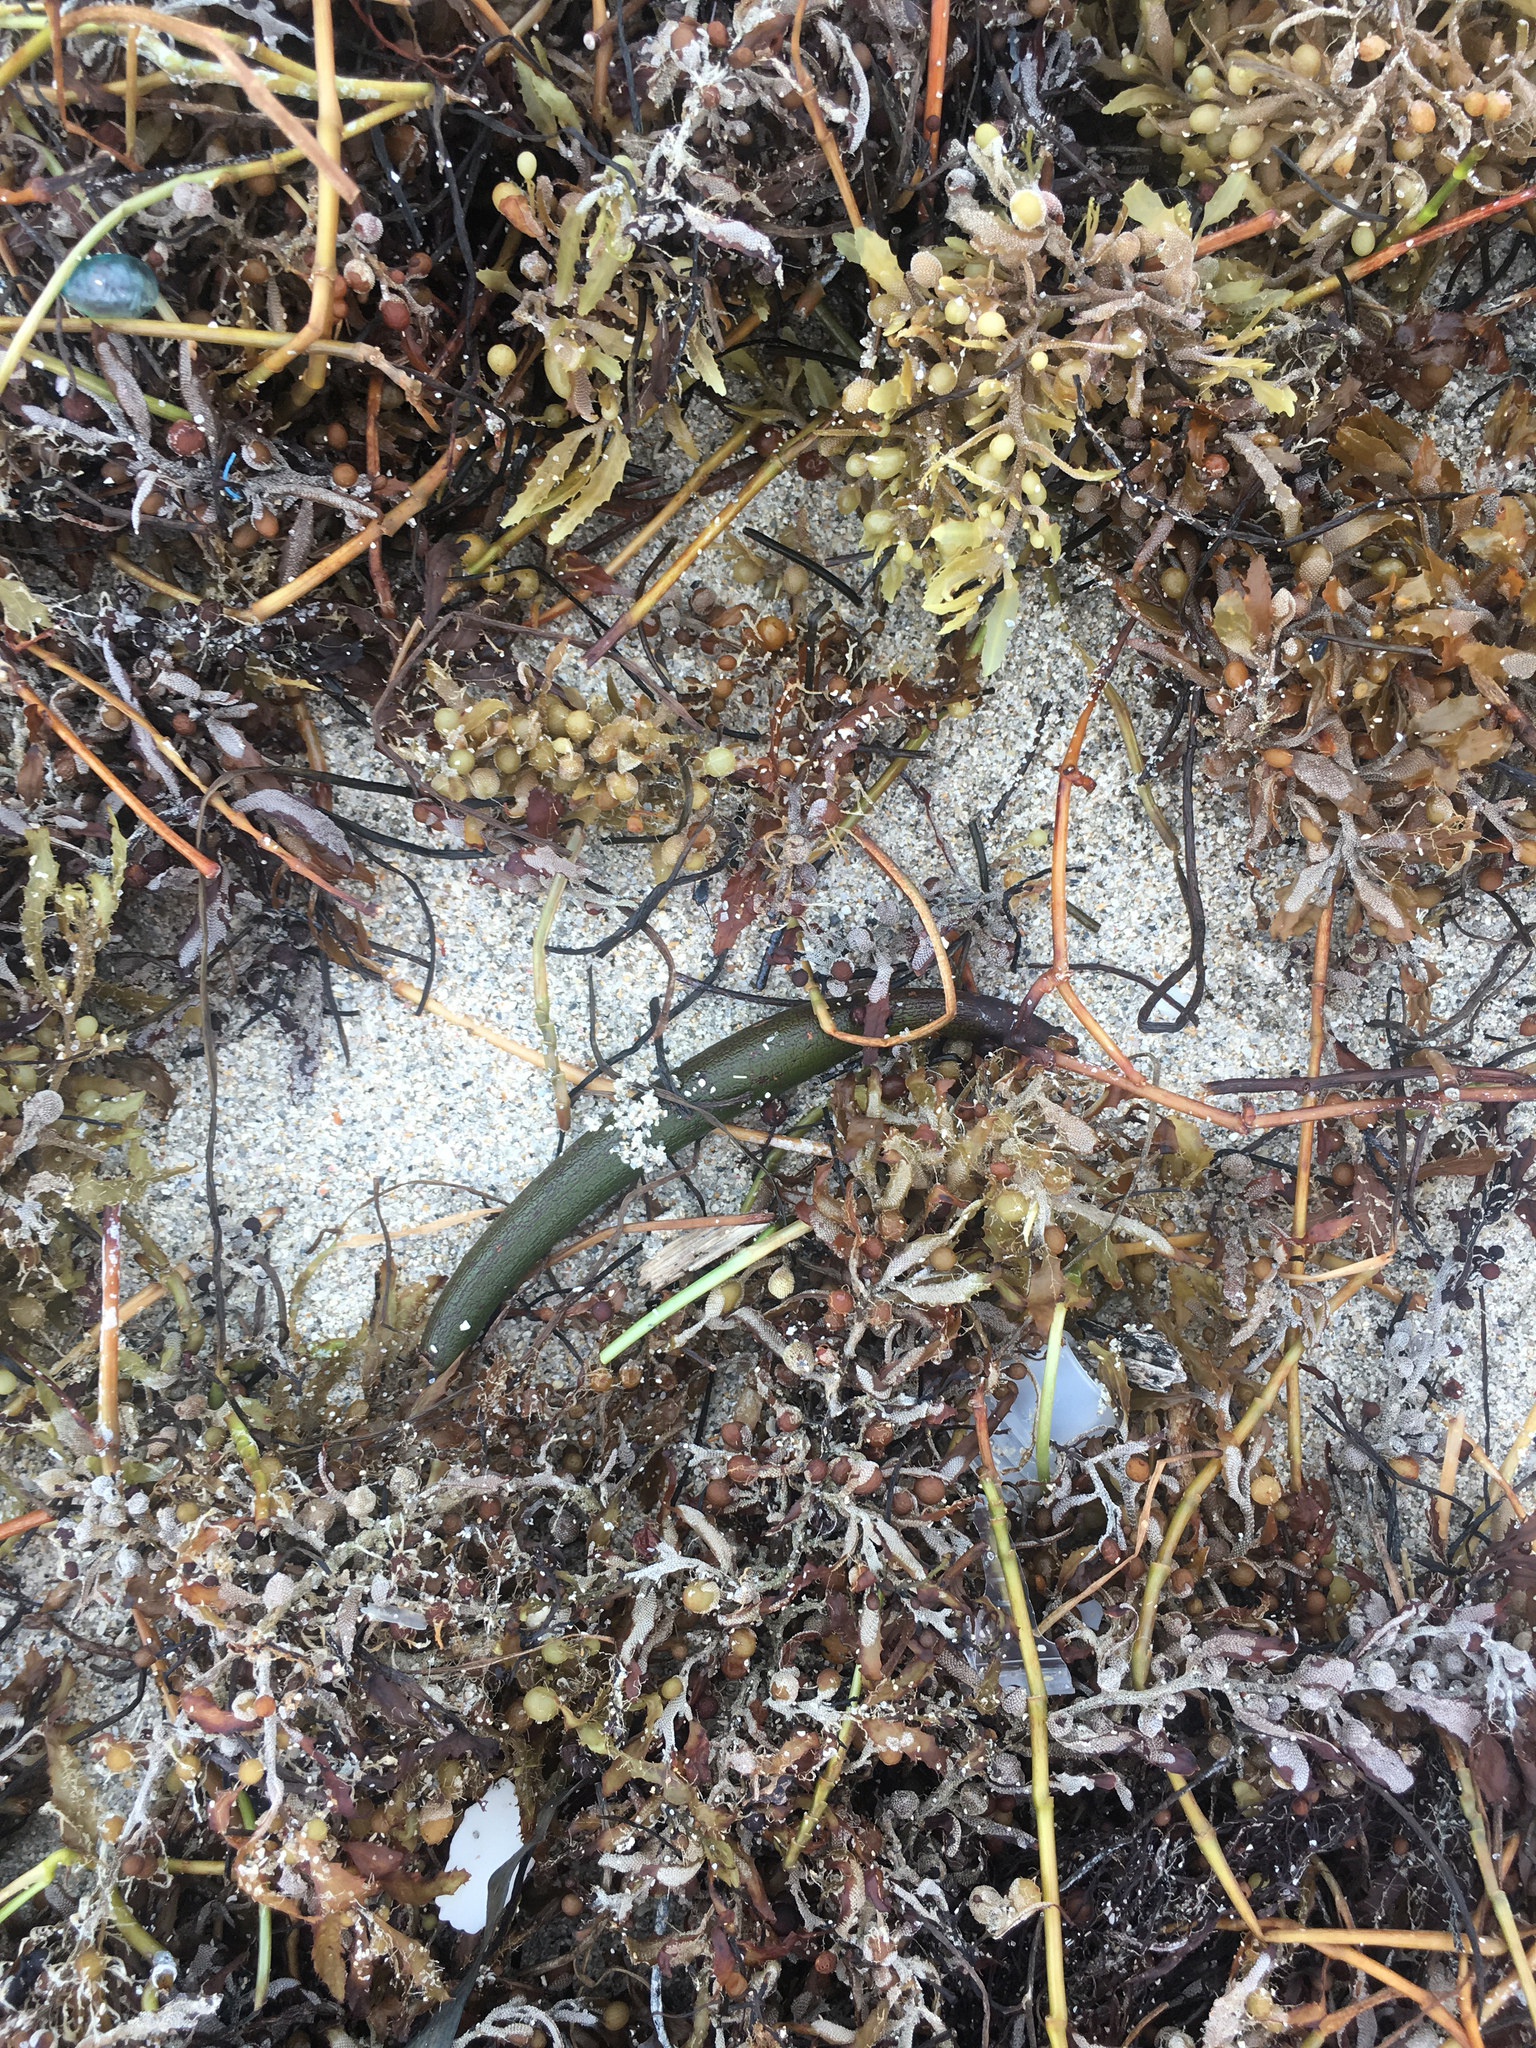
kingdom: Plantae
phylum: Tracheophyta
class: Magnoliopsida
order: Malpighiales
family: Rhizophoraceae
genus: Rhizophora
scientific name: Rhizophora mangle
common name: Red mangrove
